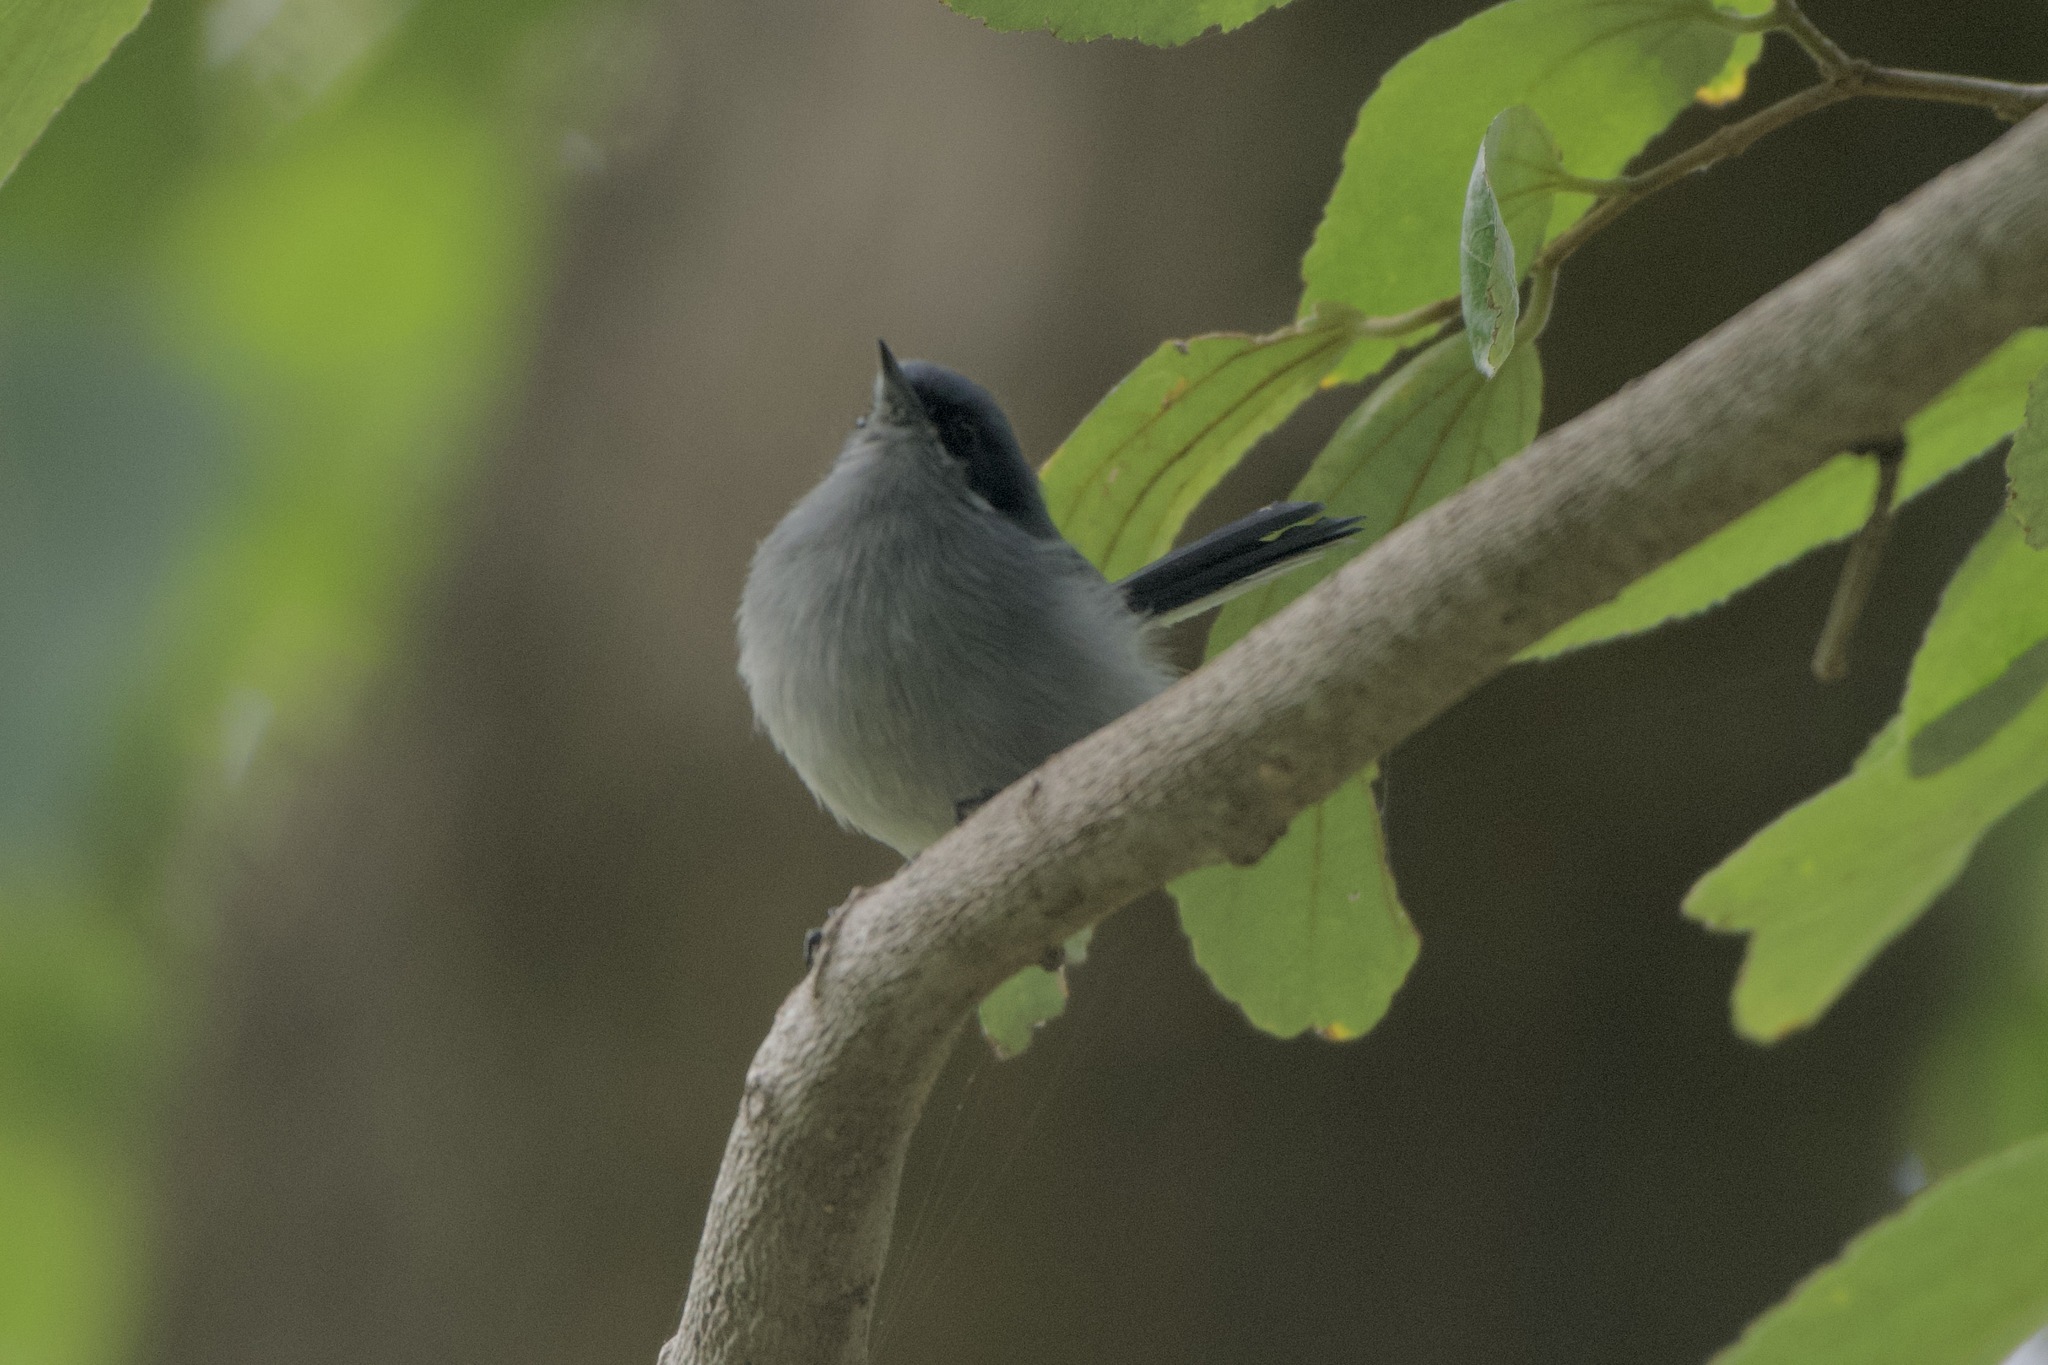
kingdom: Animalia
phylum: Chordata
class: Aves
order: Passeriformes
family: Polioptilidae
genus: Polioptila
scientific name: Polioptila dumicola
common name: Masked gnatcatcher
